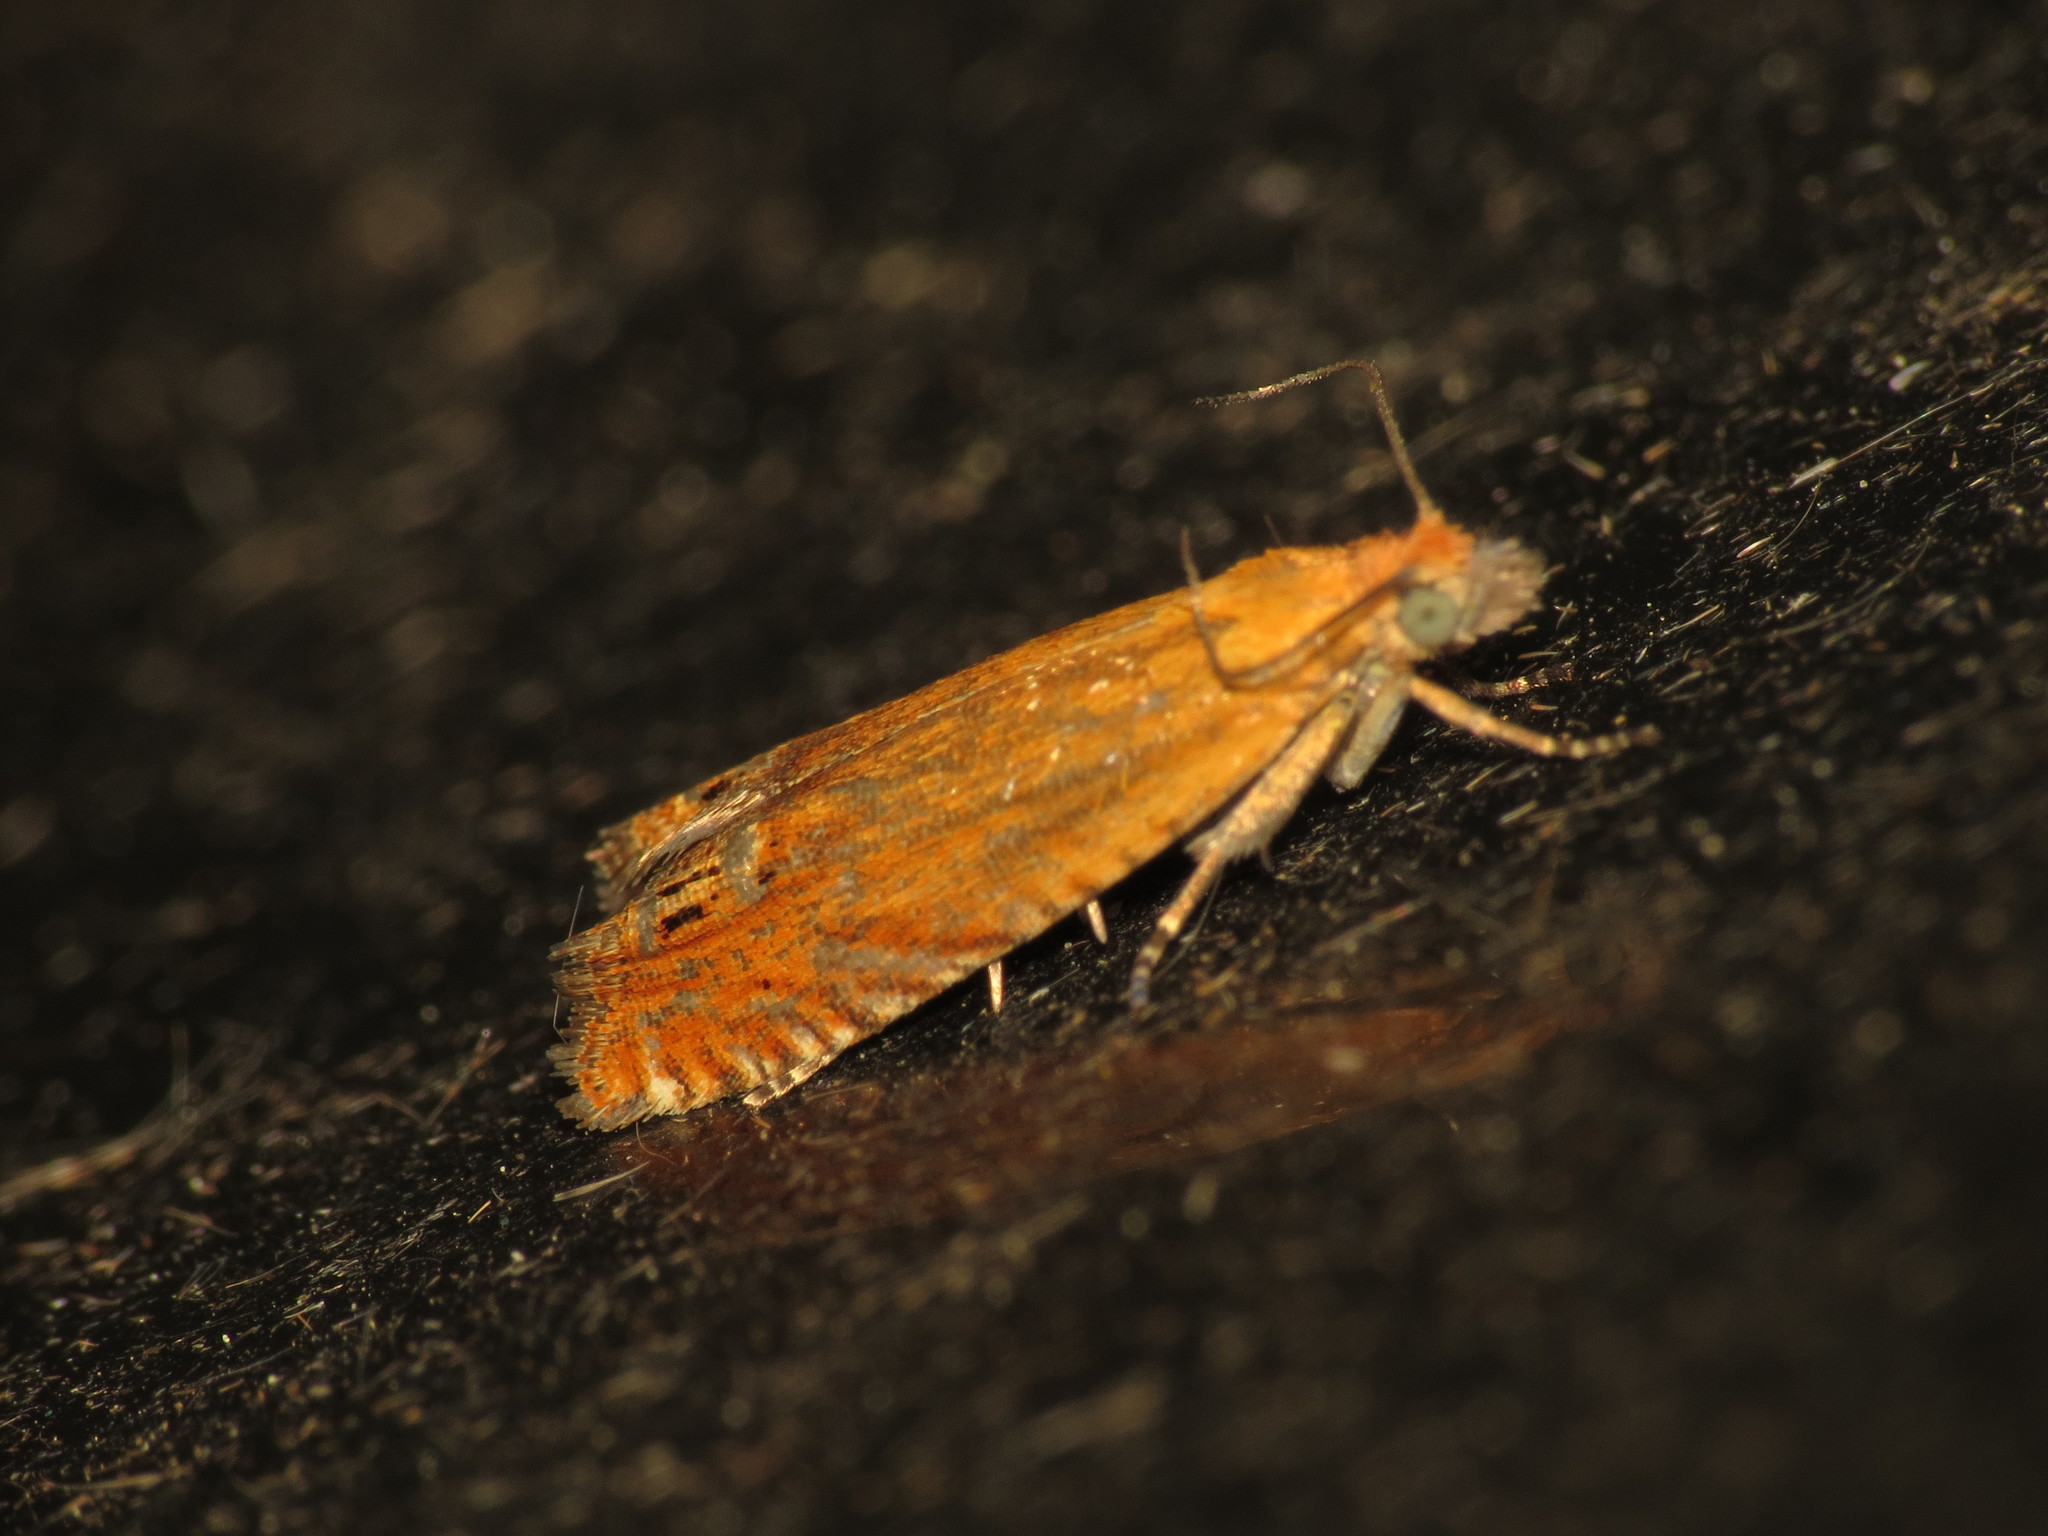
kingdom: Animalia
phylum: Arthropoda
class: Insecta
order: Lepidoptera
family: Tortricidae
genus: Lathronympha
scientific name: Lathronympha strigana
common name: Red piercer
